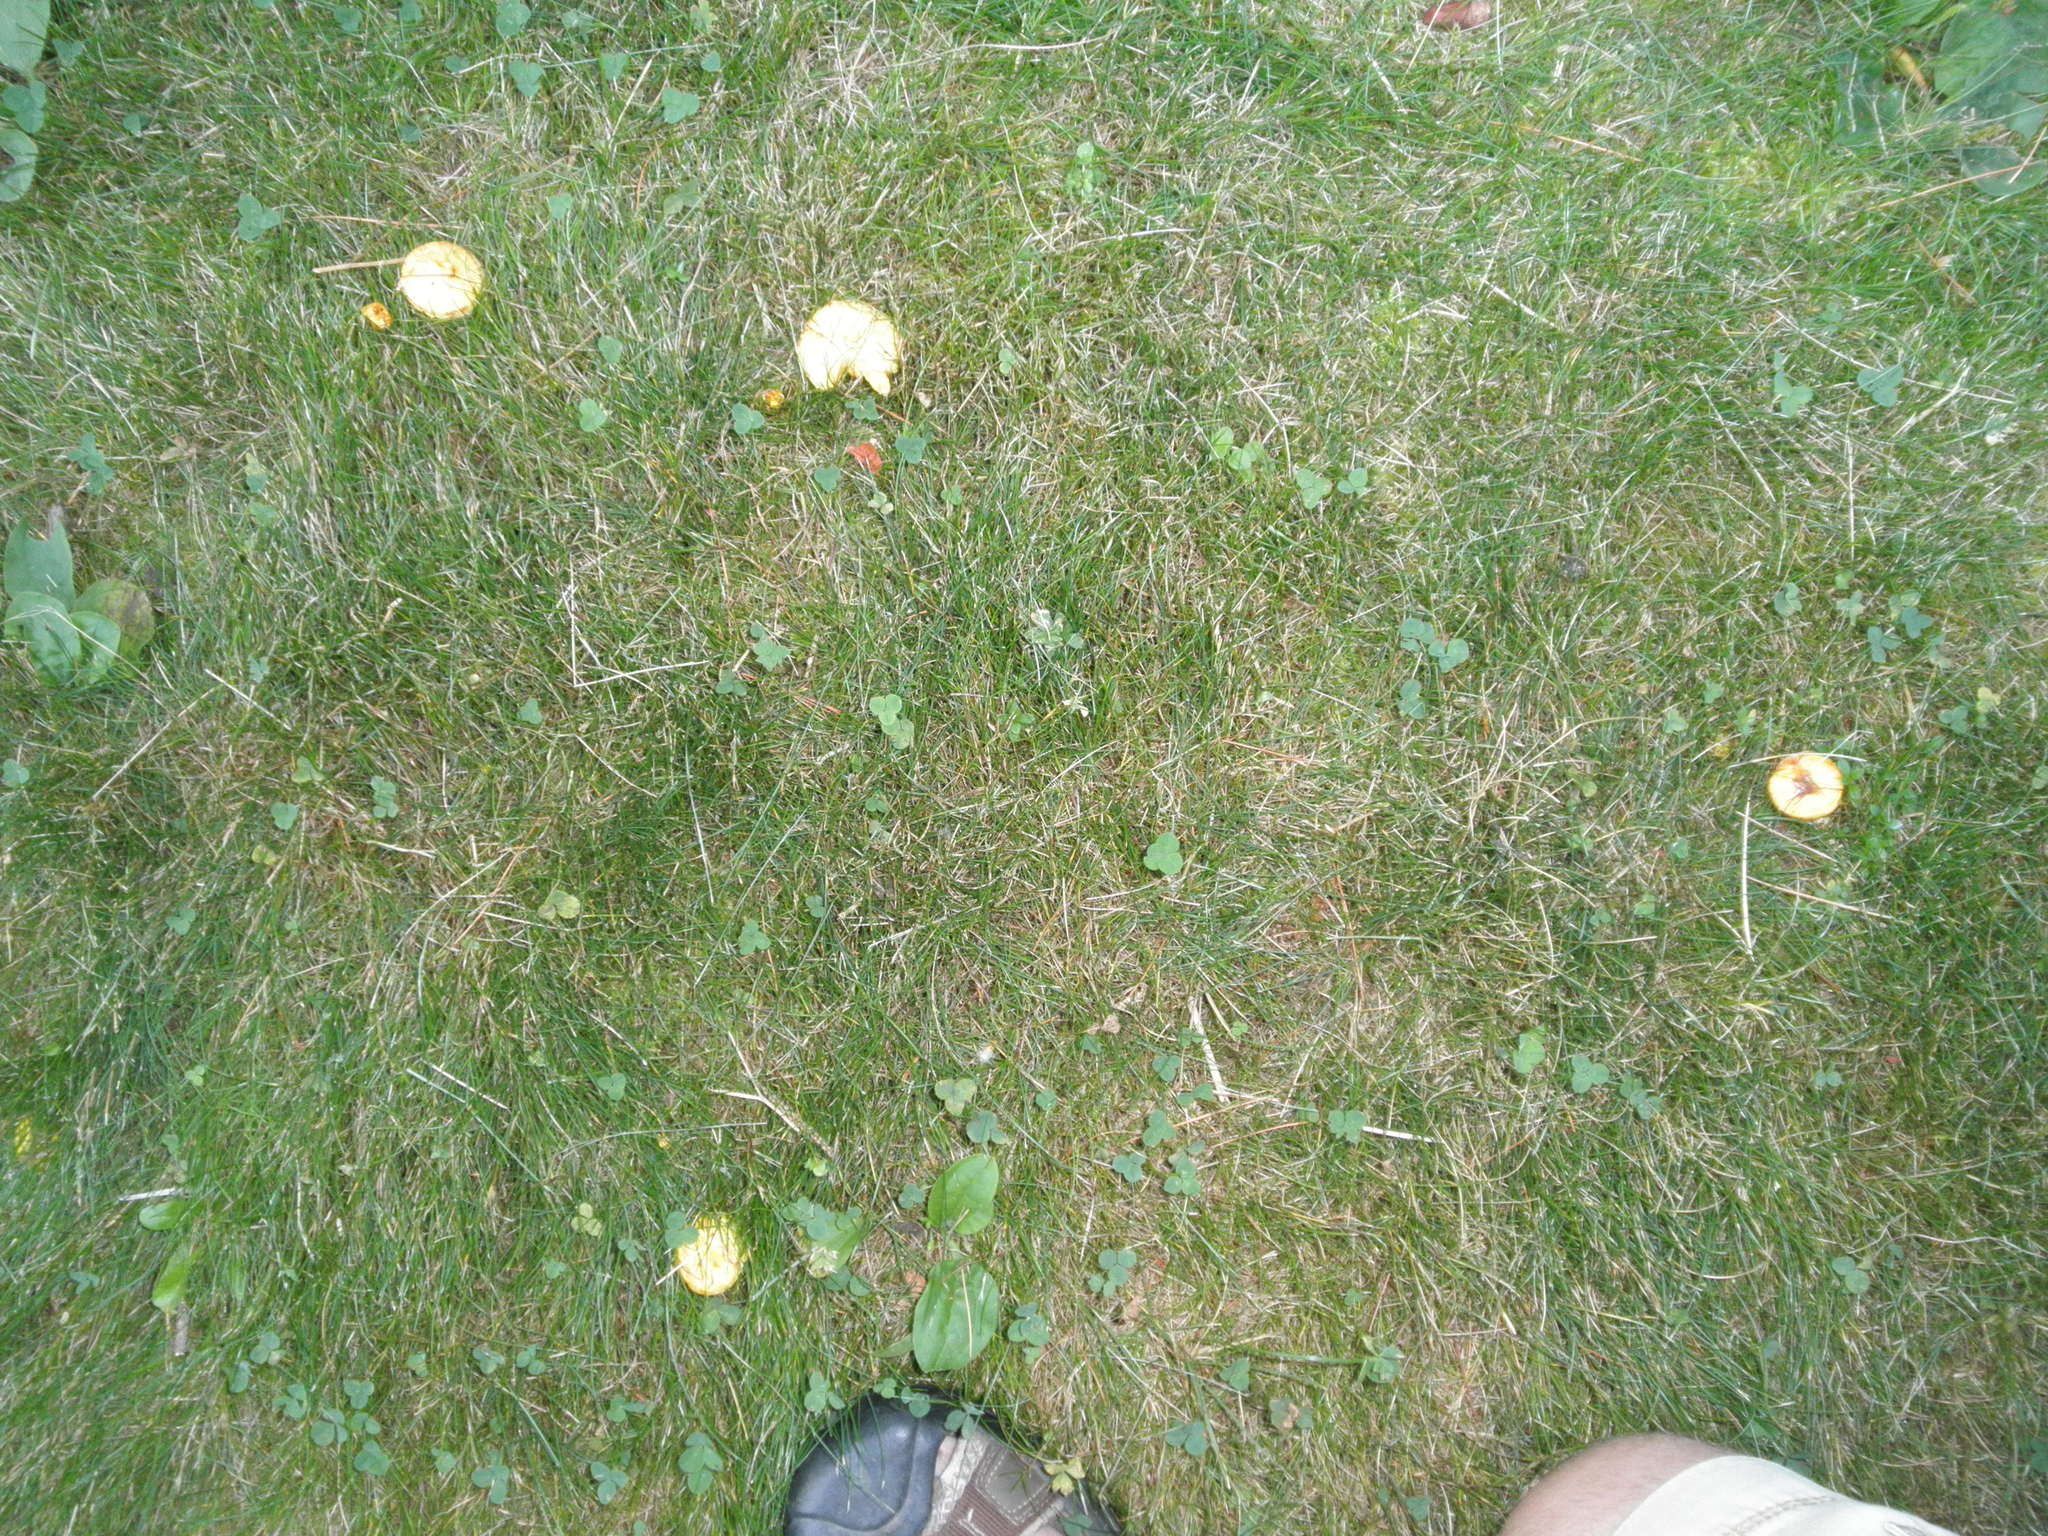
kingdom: Fungi
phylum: Basidiomycota
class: Agaricomycetes
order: Boletales
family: Suillaceae
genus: Suillus
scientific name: Suillus americanus
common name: Chicken fat mushroom
